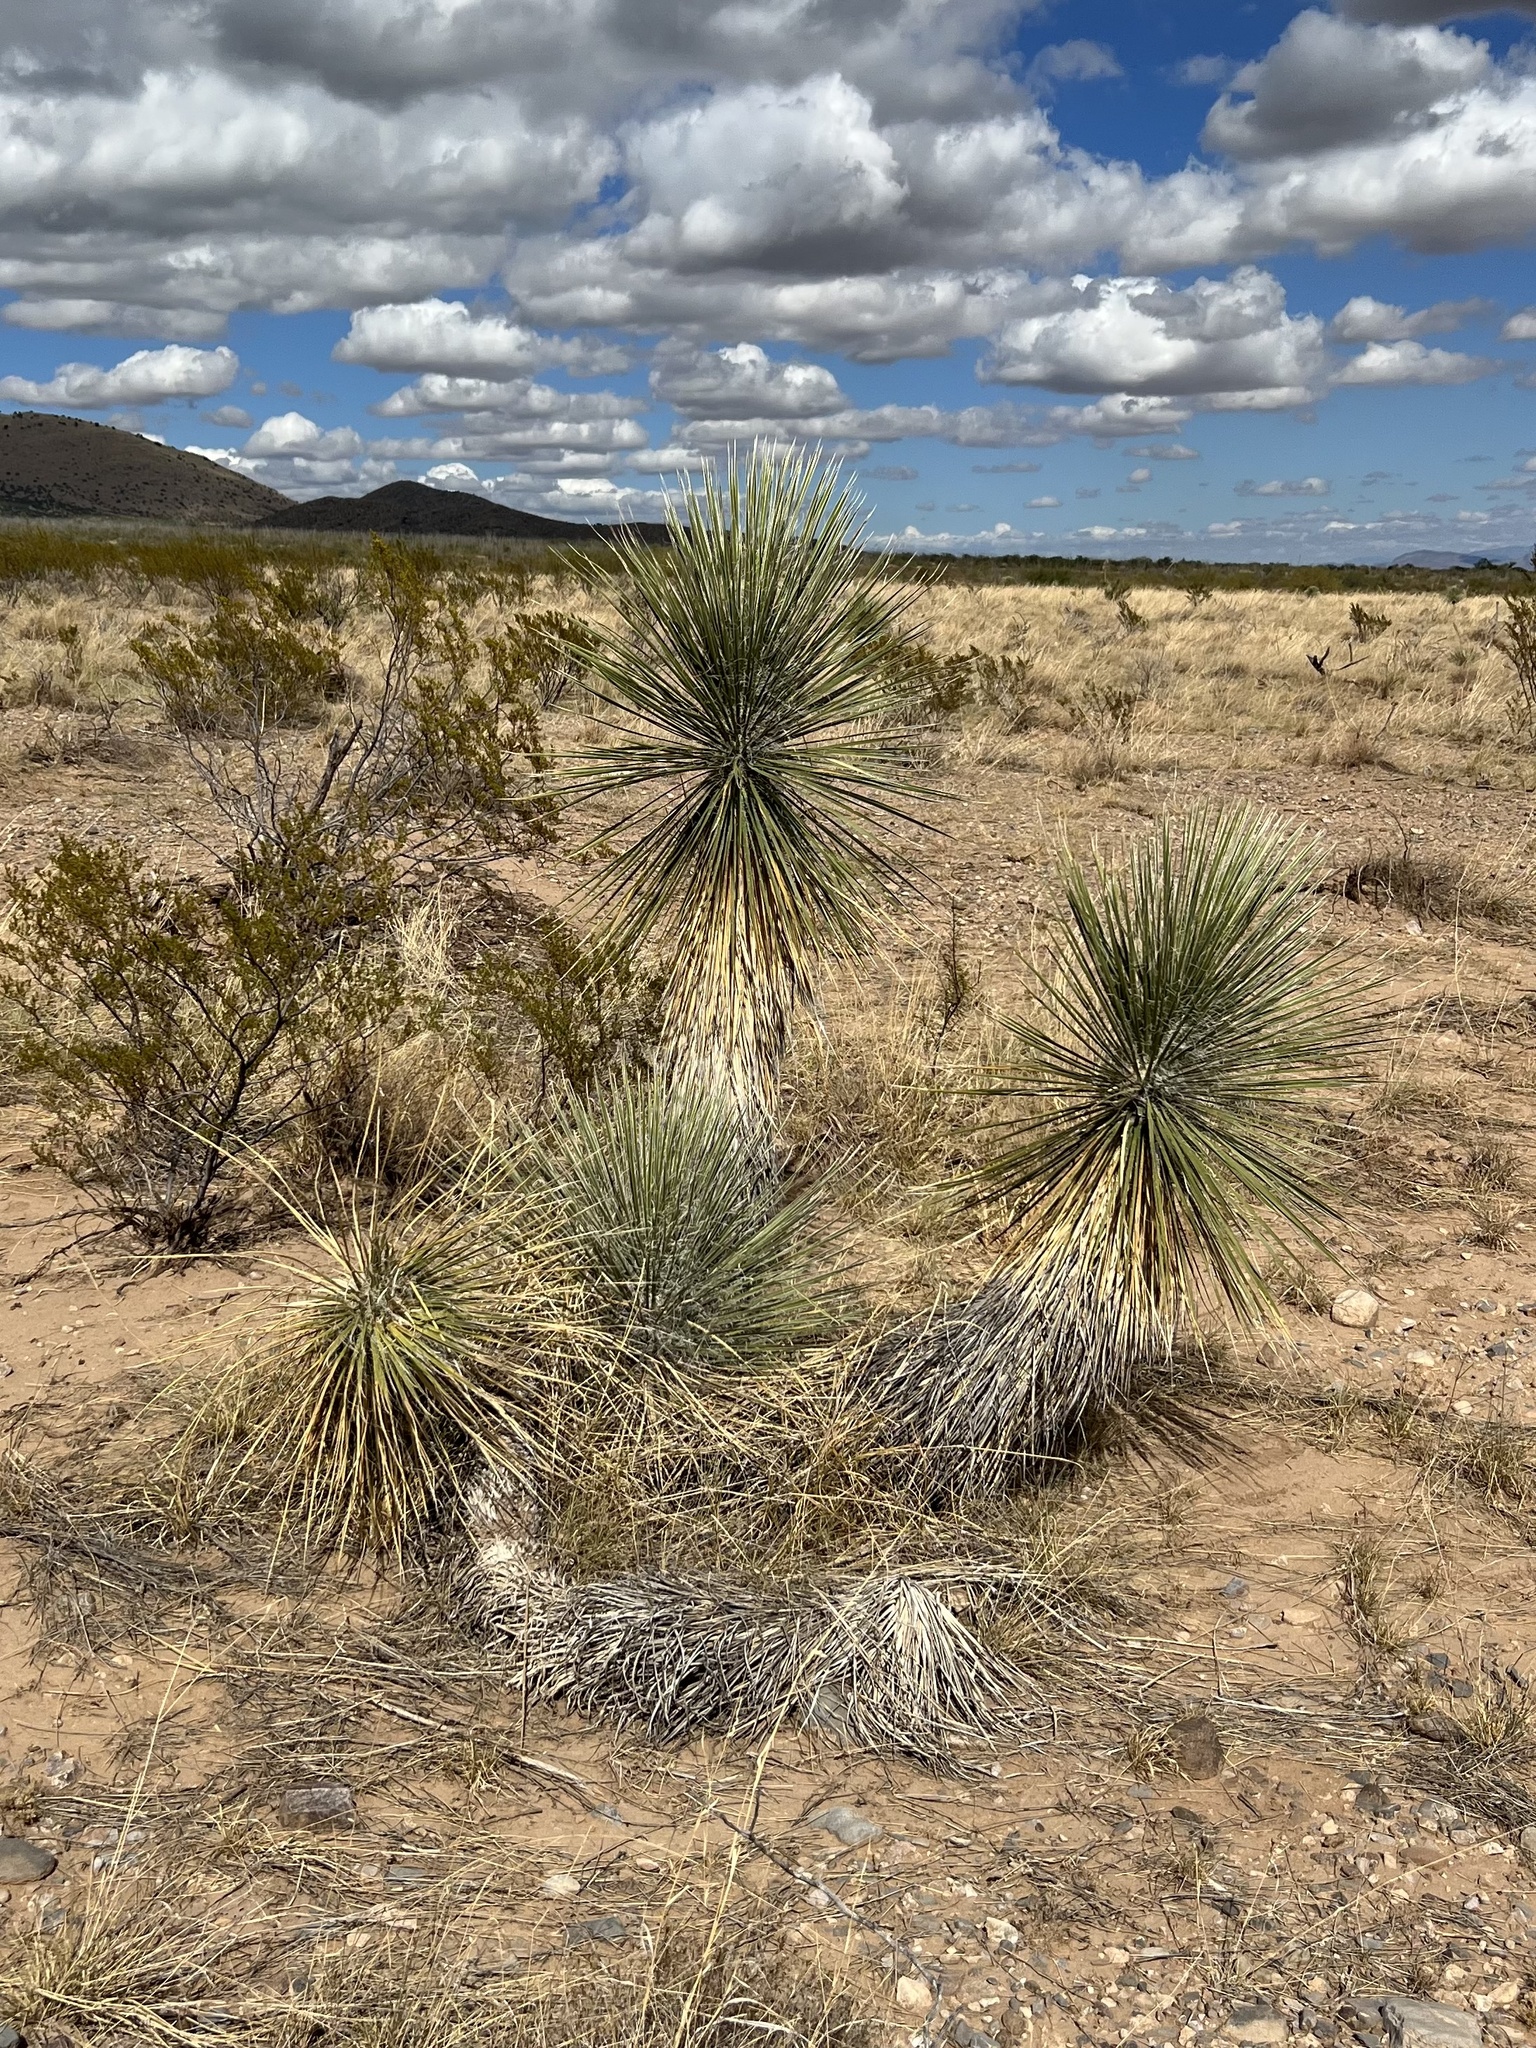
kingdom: Plantae
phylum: Tracheophyta
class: Liliopsida
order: Asparagales
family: Asparagaceae
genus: Yucca
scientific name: Yucca elata
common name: Palmella
